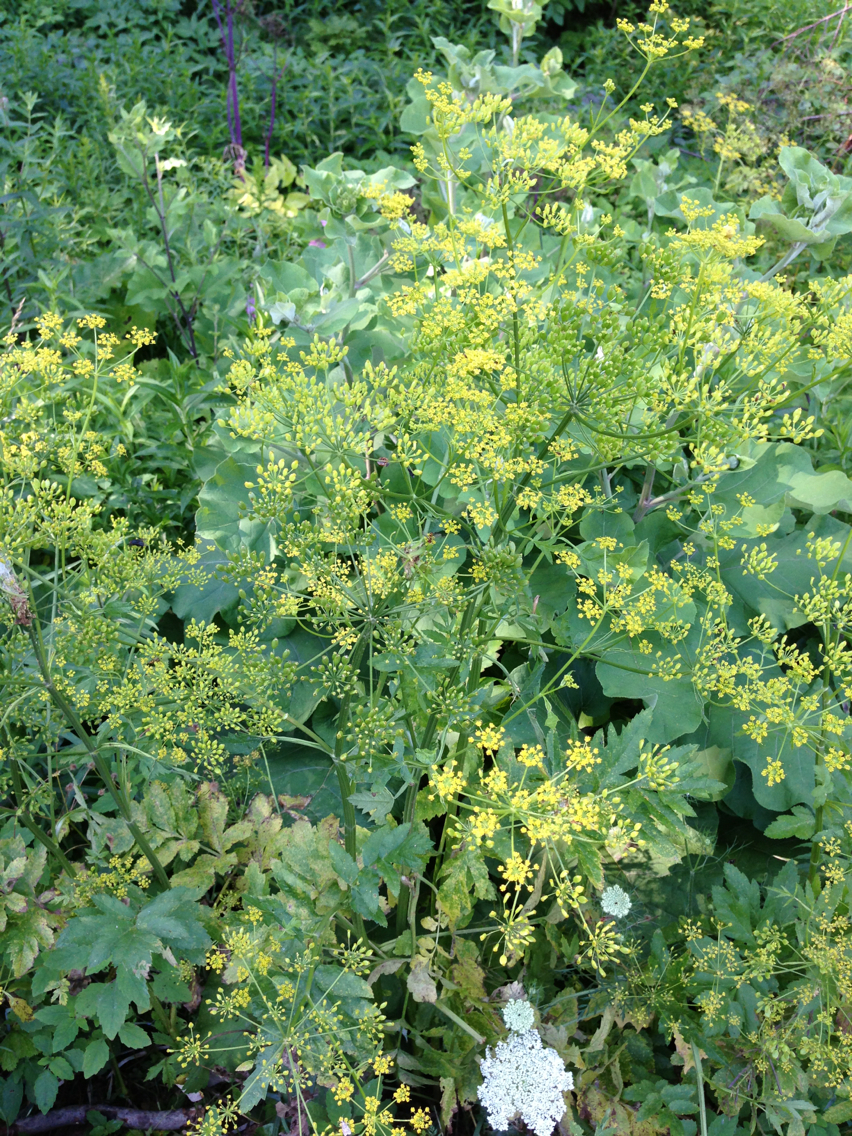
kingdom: Plantae
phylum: Tracheophyta
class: Magnoliopsida
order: Apiales
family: Apiaceae
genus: Pastinaca
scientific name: Pastinaca sativa
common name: Wild parsnip
